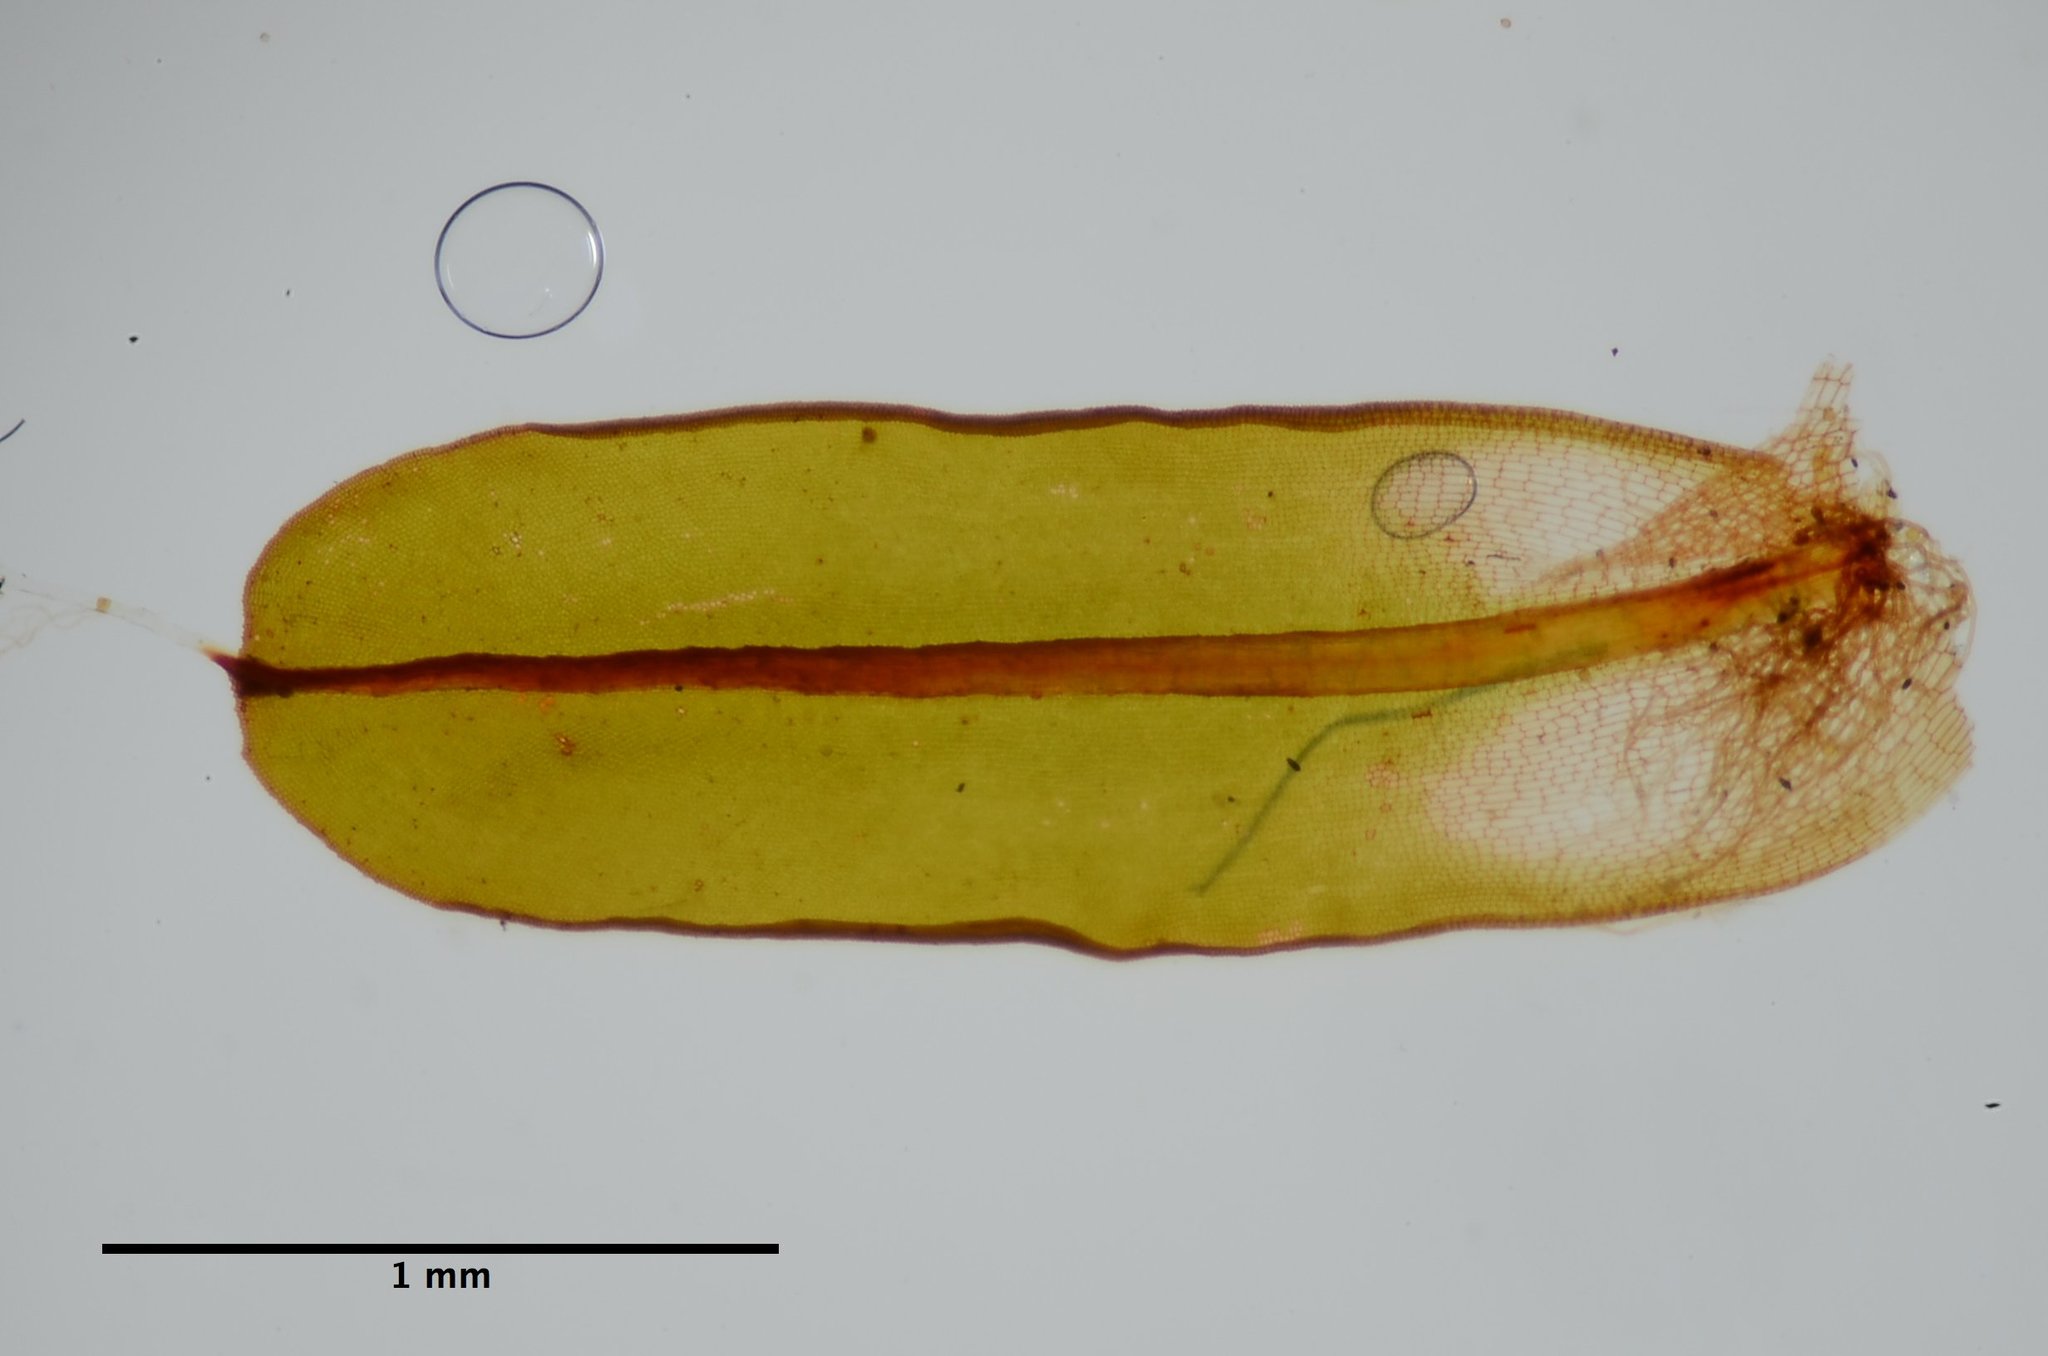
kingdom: Plantae
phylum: Bryophyta
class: Bryopsida
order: Pottiales
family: Pottiaceae
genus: Syntrichia
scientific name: Syntrichia princeps
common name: Brown screw-moss
